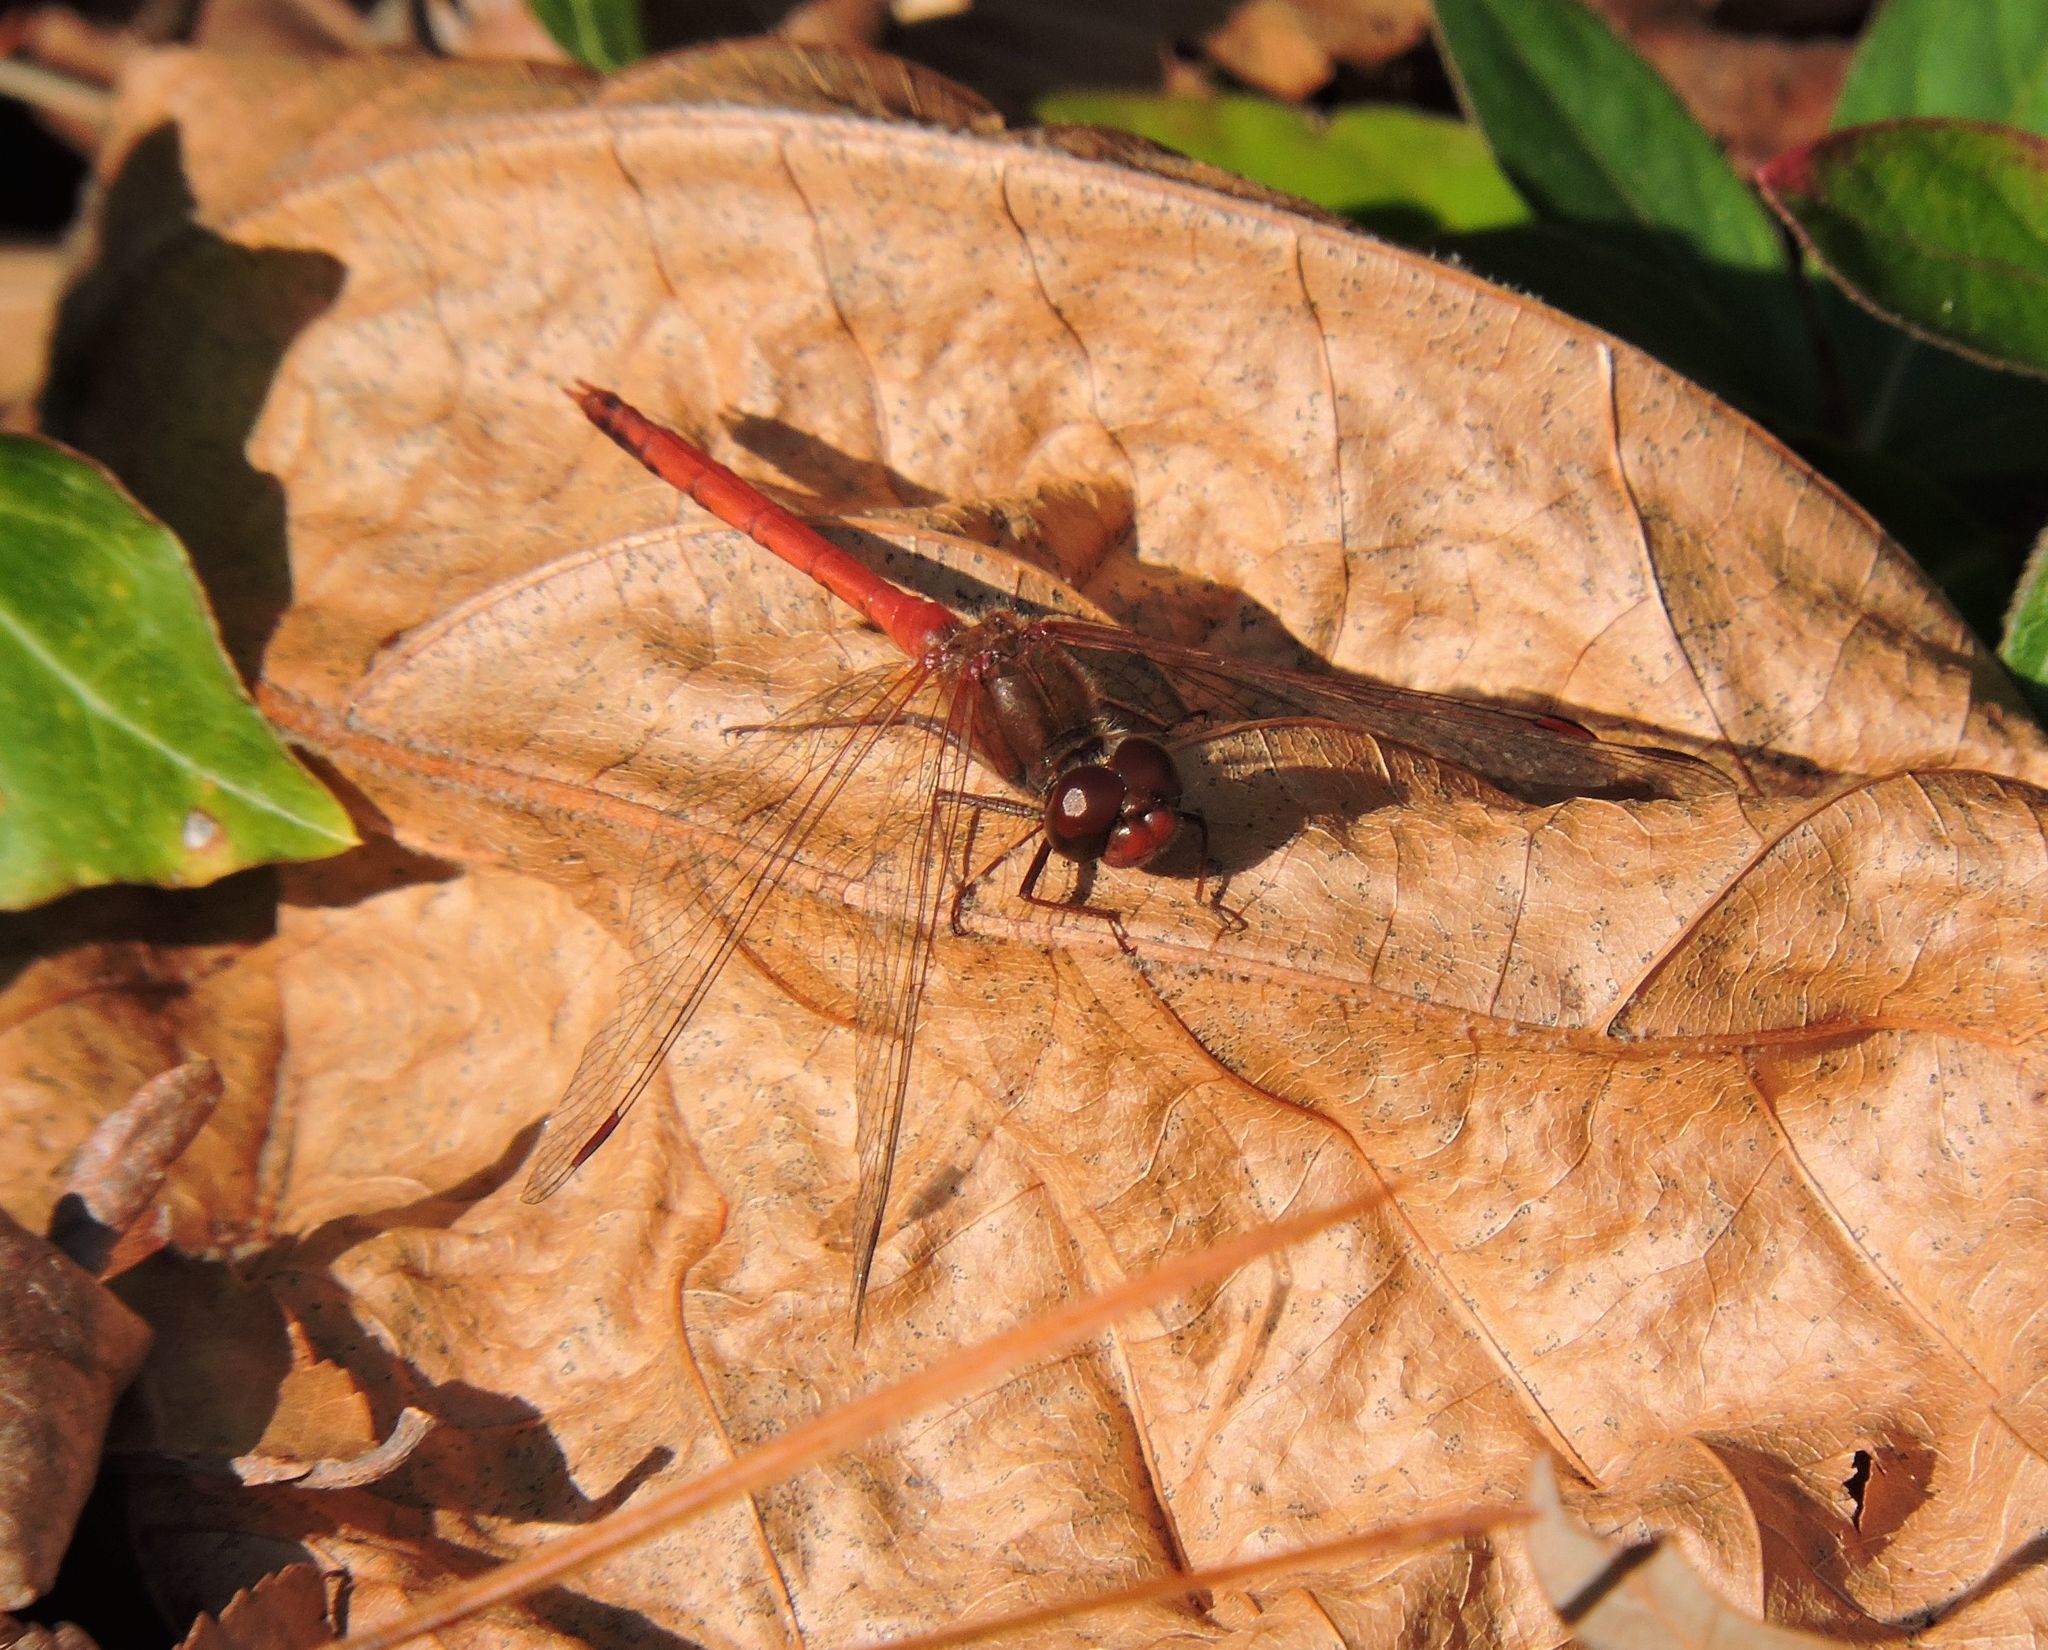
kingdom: Animalia
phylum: Arthropoda
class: Insecta
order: Odonata
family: Libellulidae
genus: Sympetrum
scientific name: Sympetrum vicinum
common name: Autumn meadowhawk
